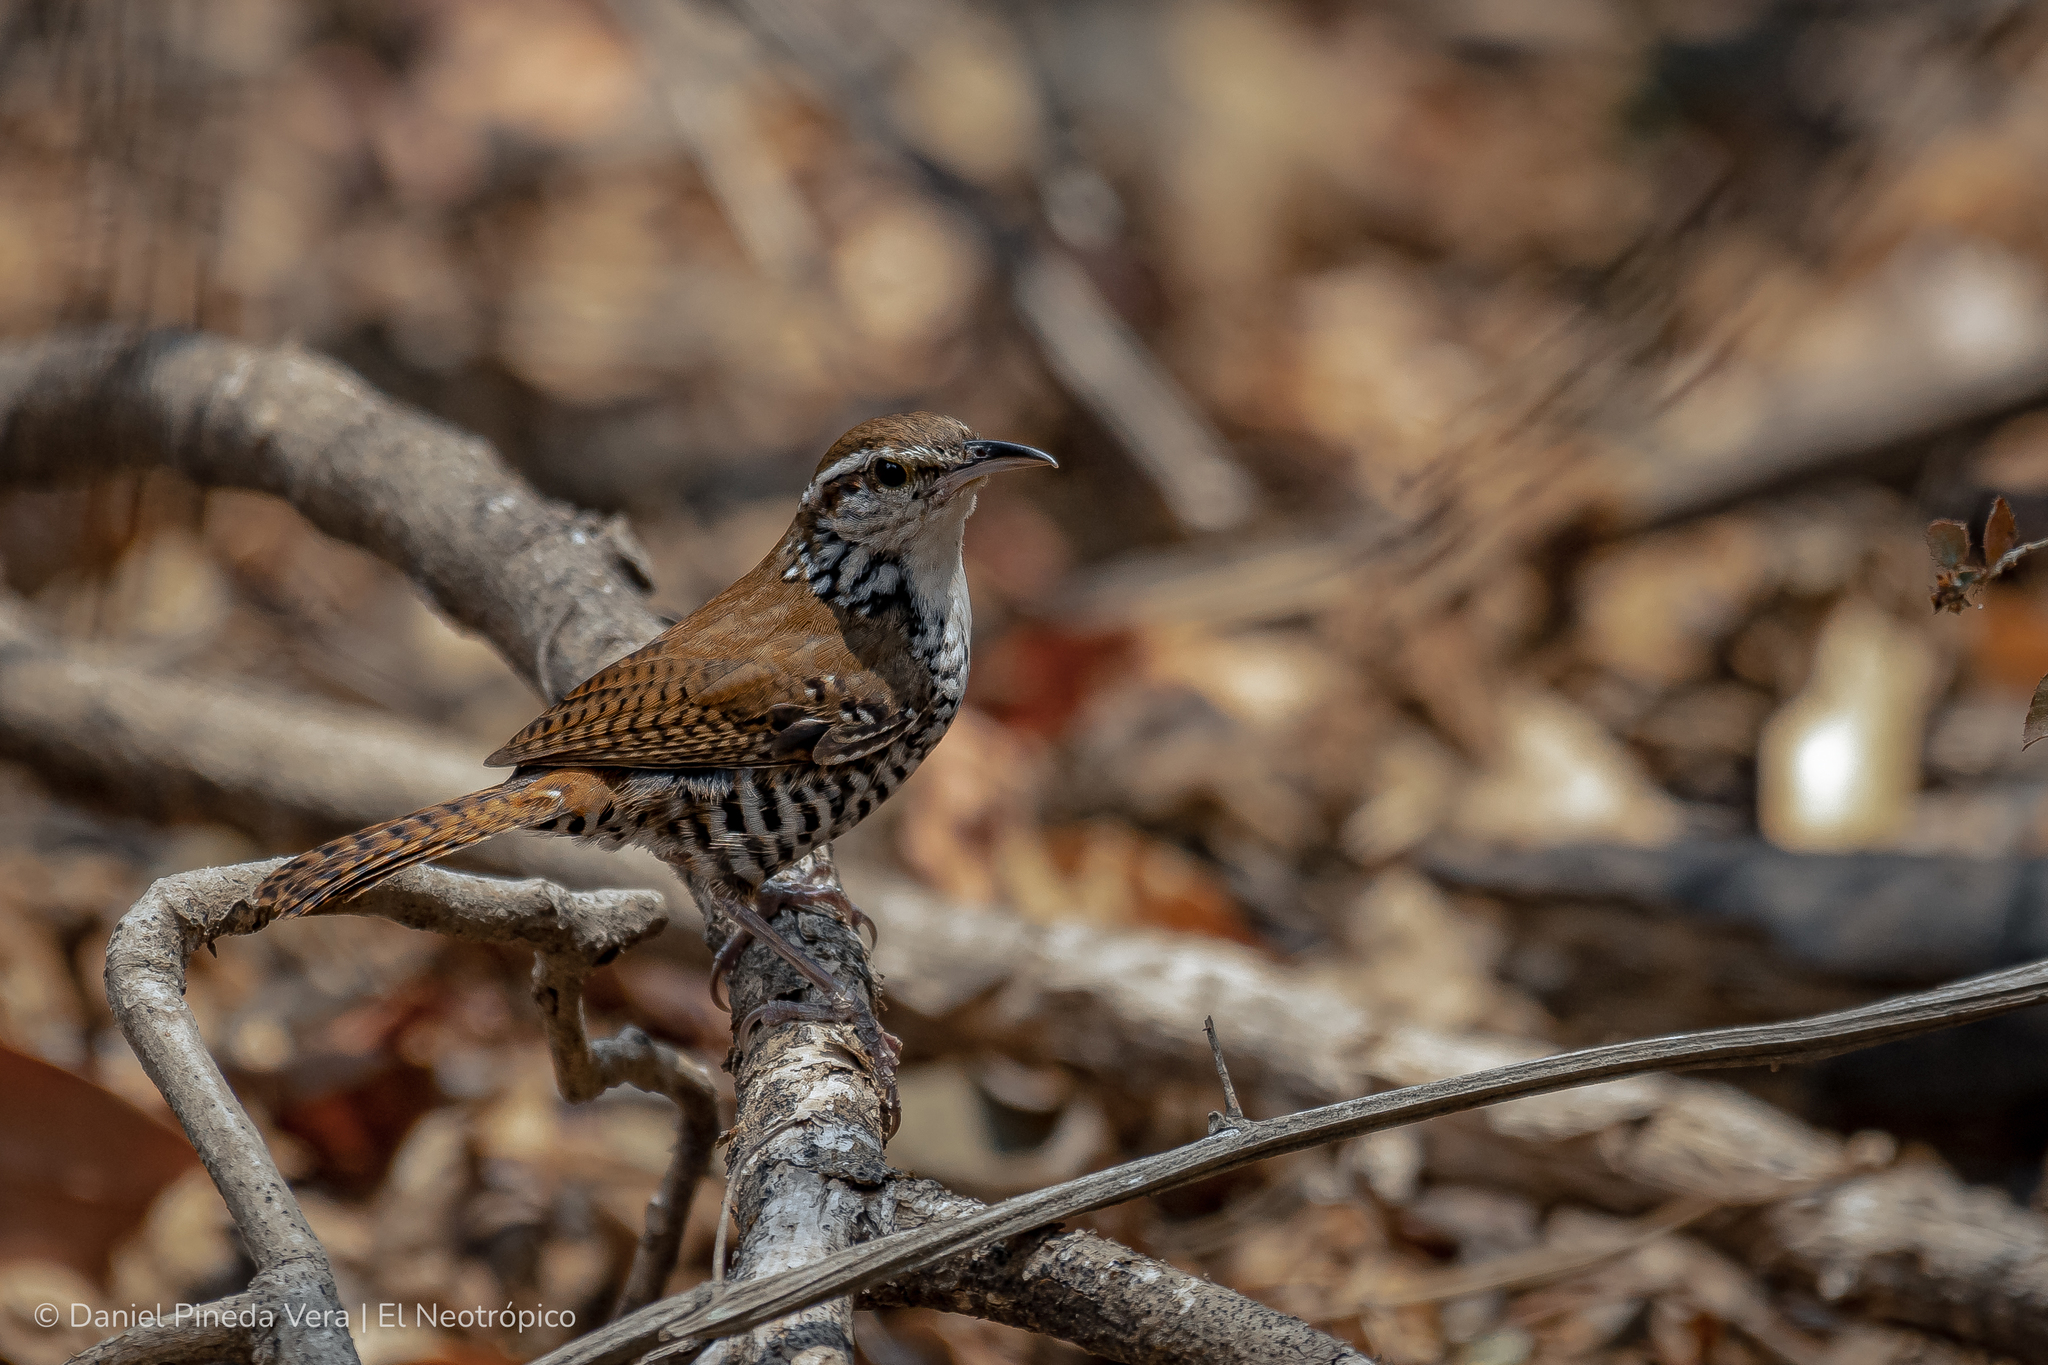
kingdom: Animalia
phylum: Chordata
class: Aves
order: Passeriformes
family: Troglodytidae
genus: Thryophilus
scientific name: Thryophilus pleurostictus
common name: Banded wren
